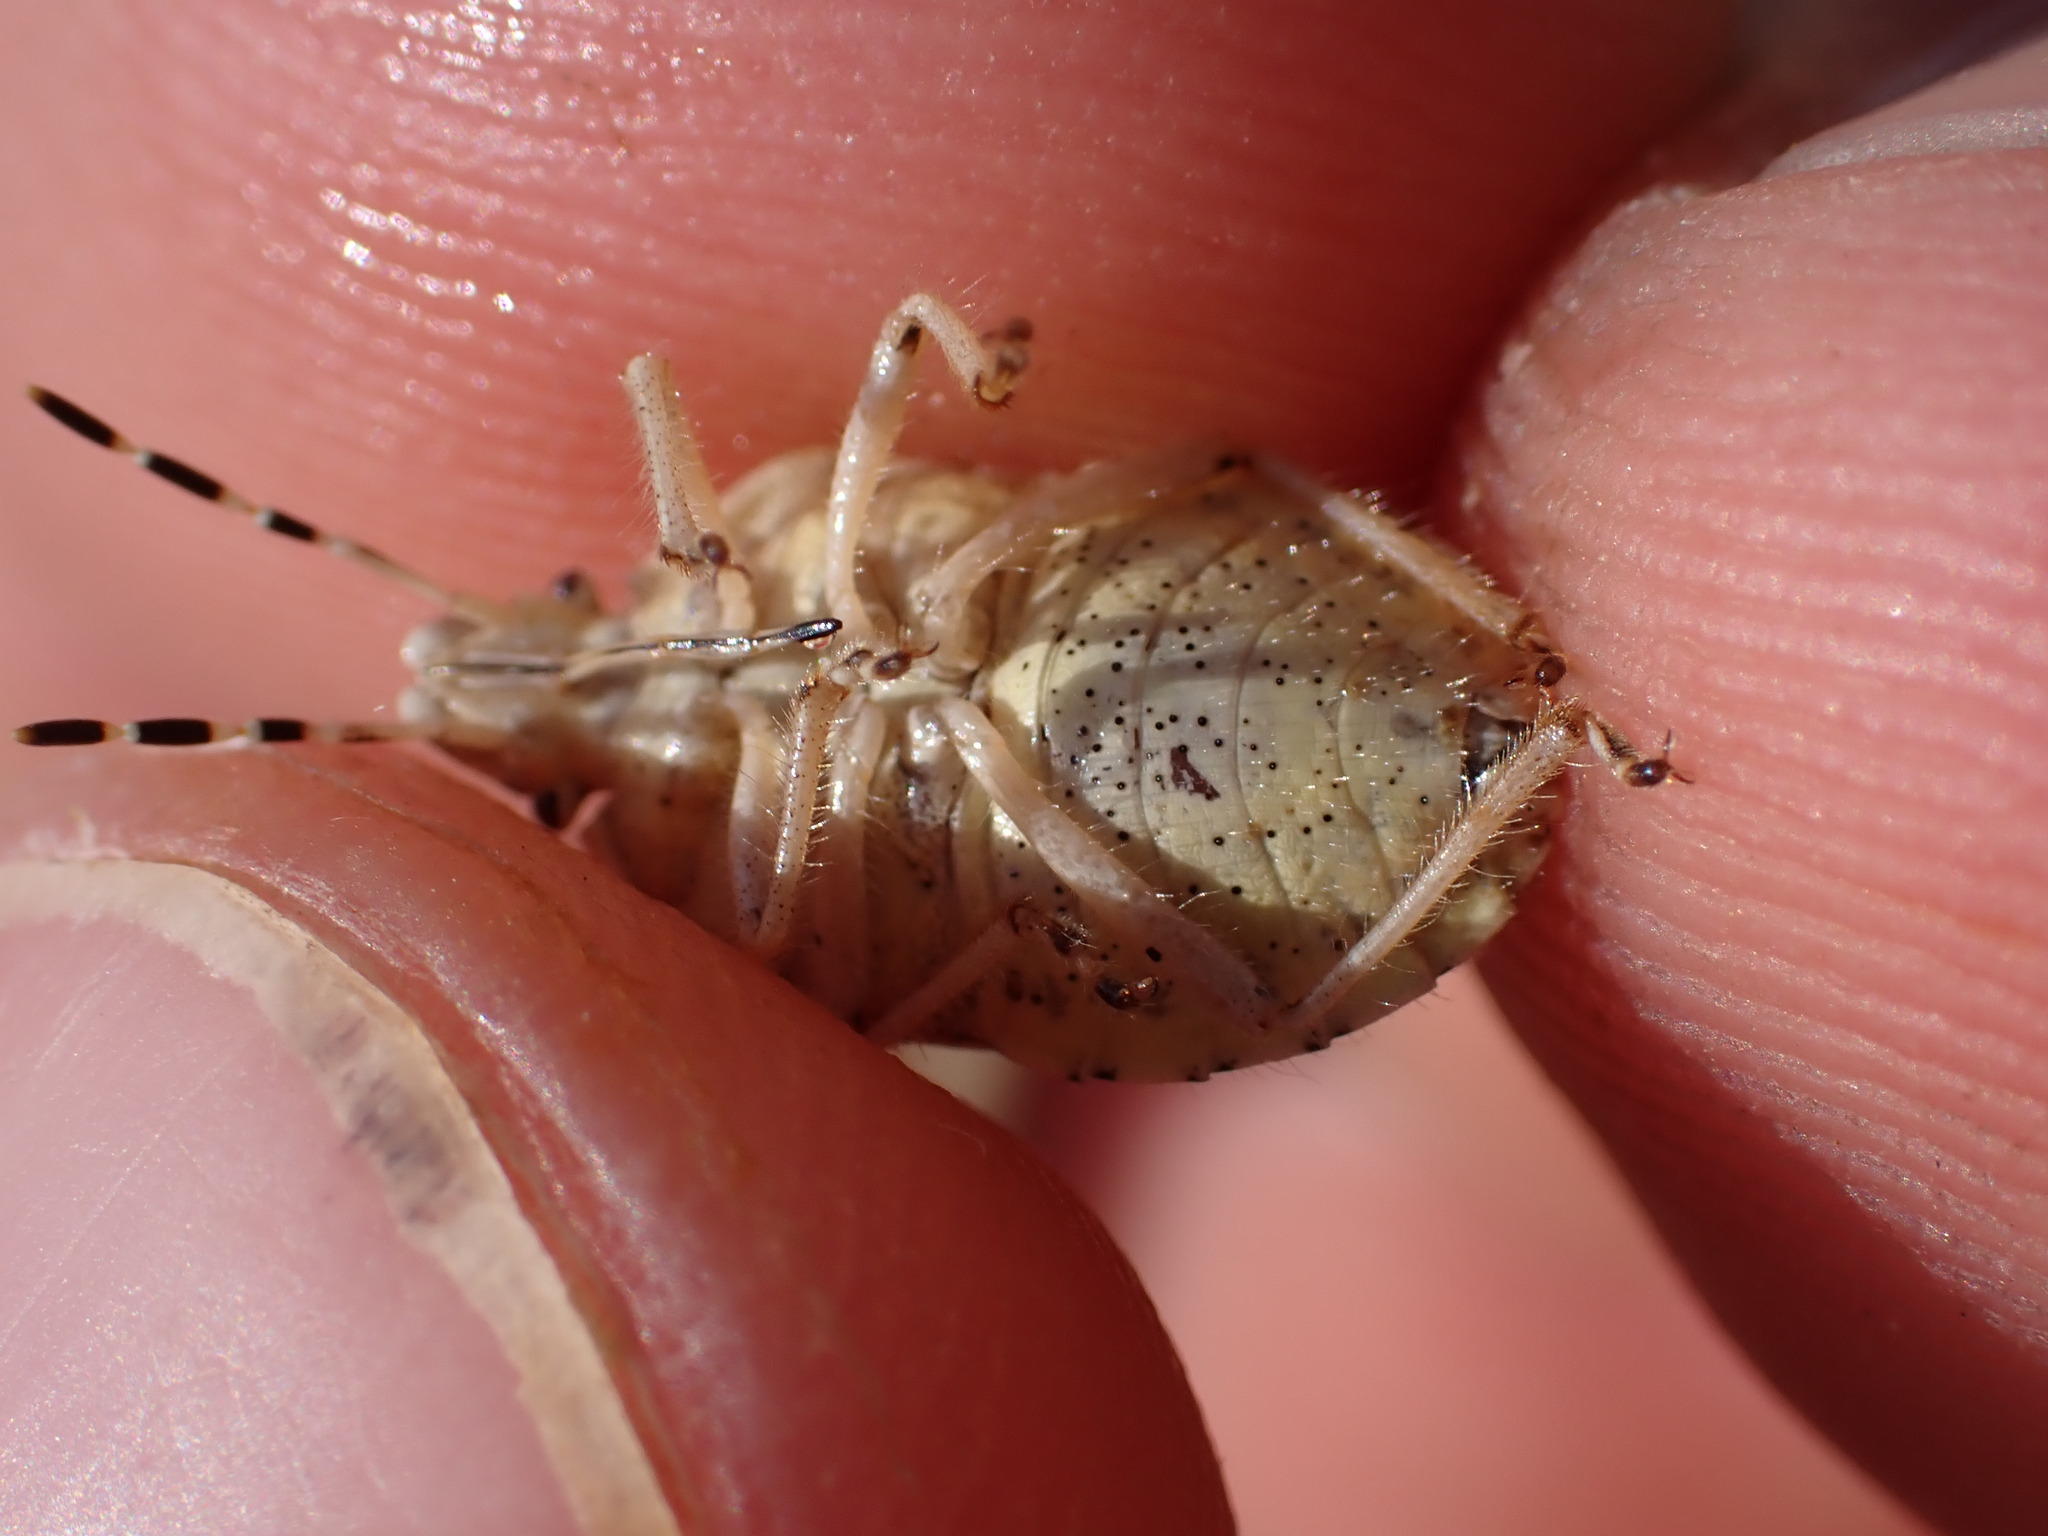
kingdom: Animalia
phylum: Arthropoda
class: Insecta
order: Hemiptera
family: Pentatomidae
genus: Dolycoris
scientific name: Dolycoris baccarum
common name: Sloe bug
